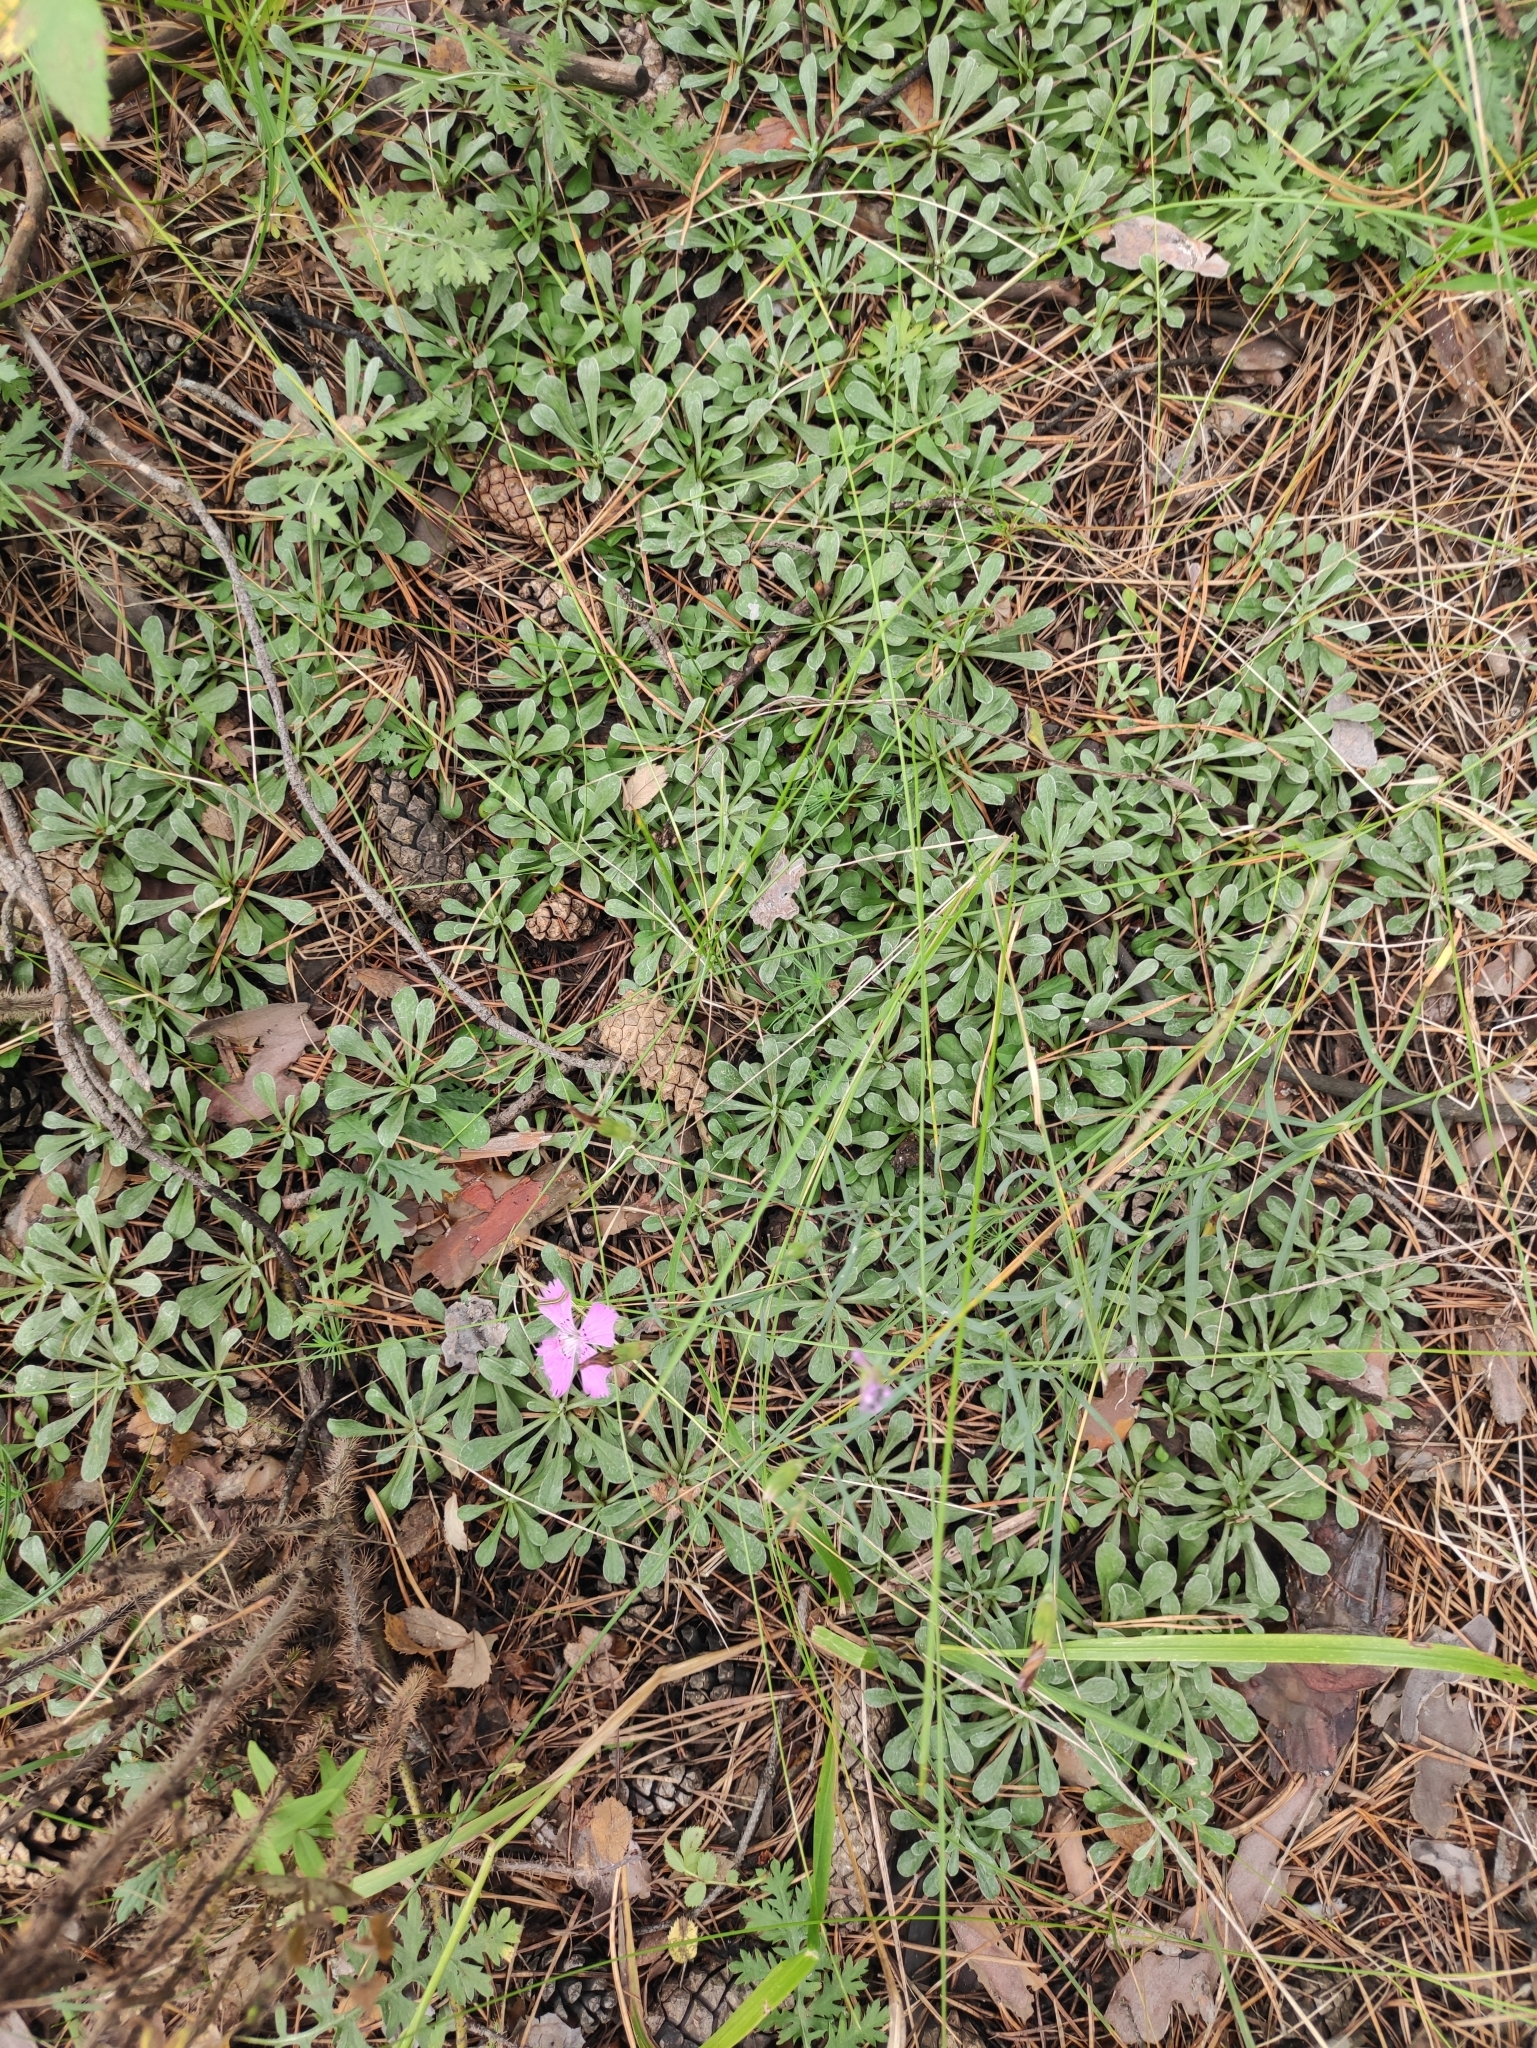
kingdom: Plantae
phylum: Tracheophyta
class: Magnoliopsida
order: Asterales
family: Asteraceae
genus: Antennaria
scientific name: Antennaria dioica
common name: Mountain everlasting
